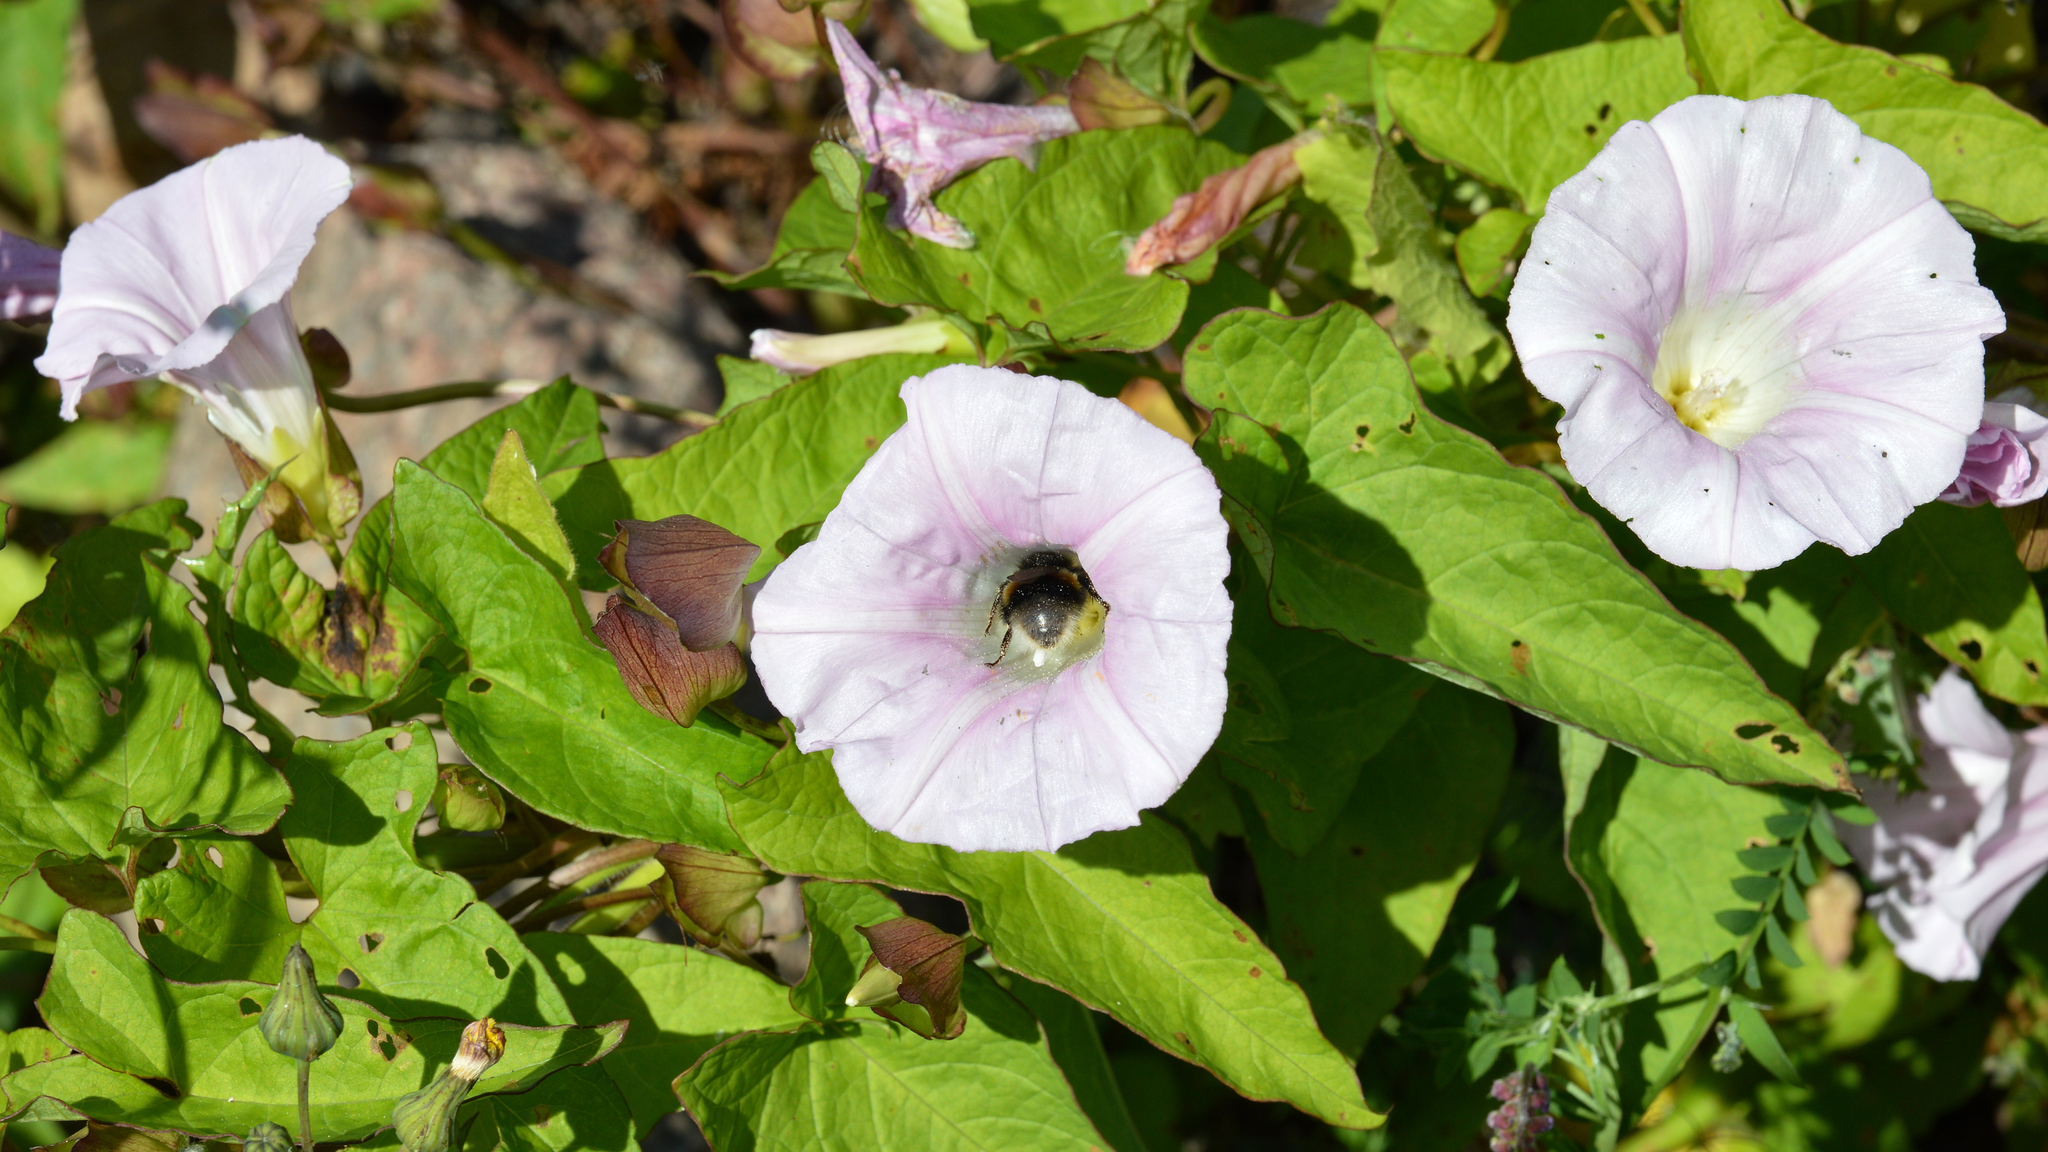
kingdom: Plantae
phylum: Tracheophyta
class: Magnoliopsida
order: Solanales
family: Convolvulaceae
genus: Calystegia
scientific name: Calystegia sepium
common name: Hedge bindweed
